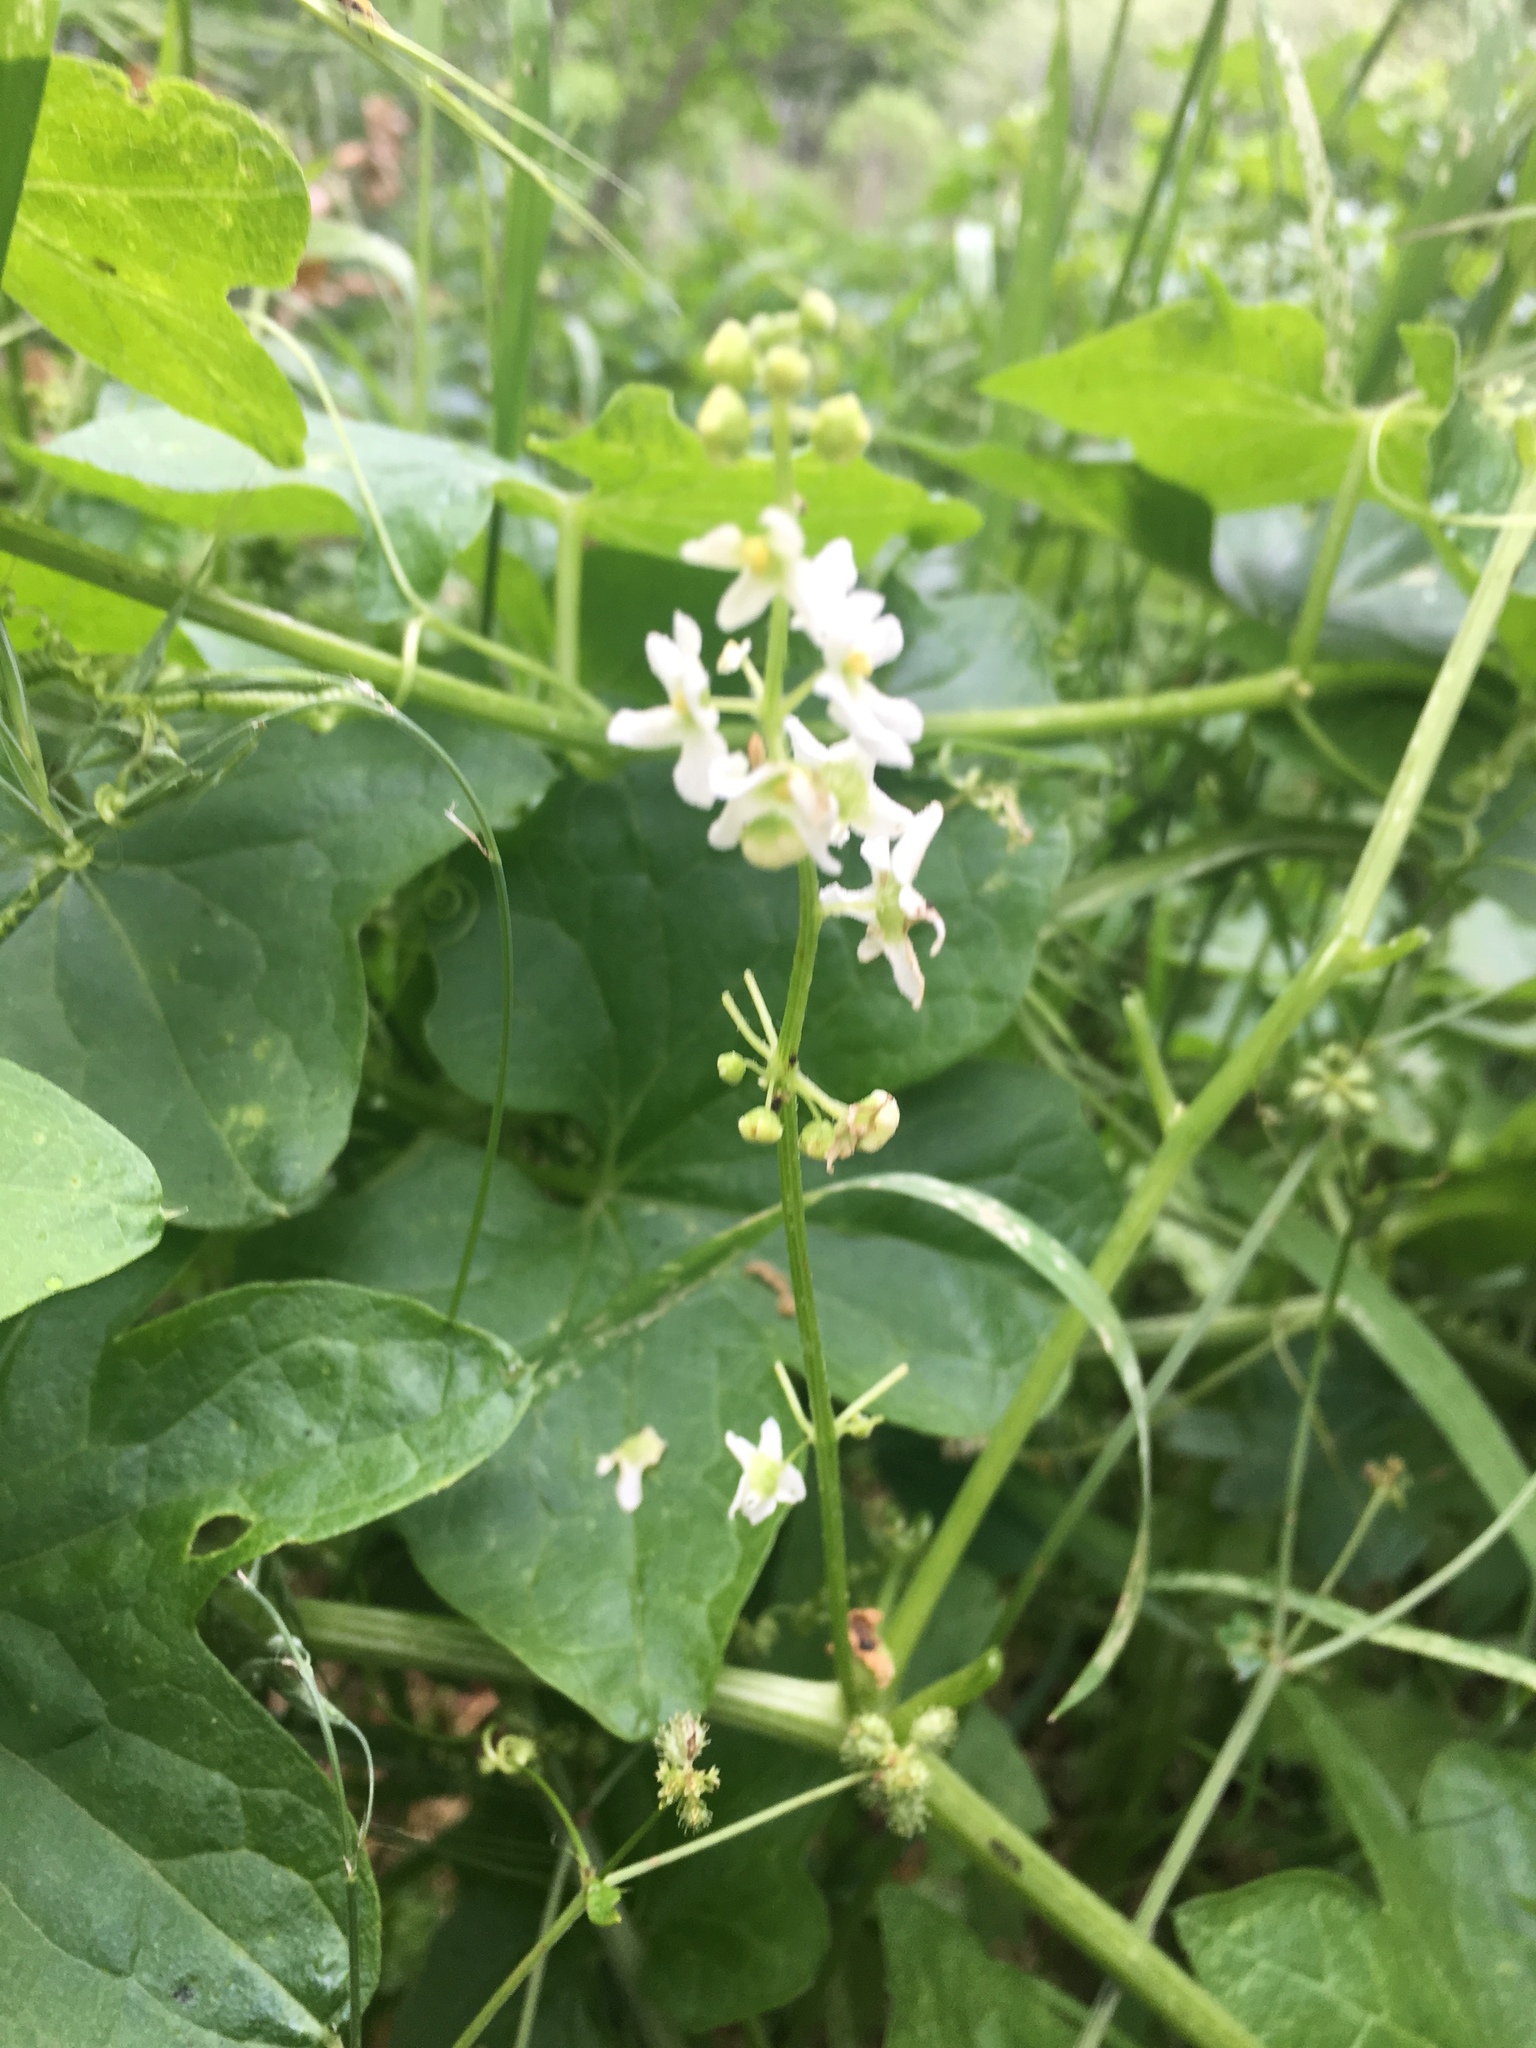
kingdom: Plantae
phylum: Tracheophyta
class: Magnoliopsida
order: Cucurbitales
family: Cucurbitaceae
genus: Marah
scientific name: Marah fabacea
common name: California manroot
